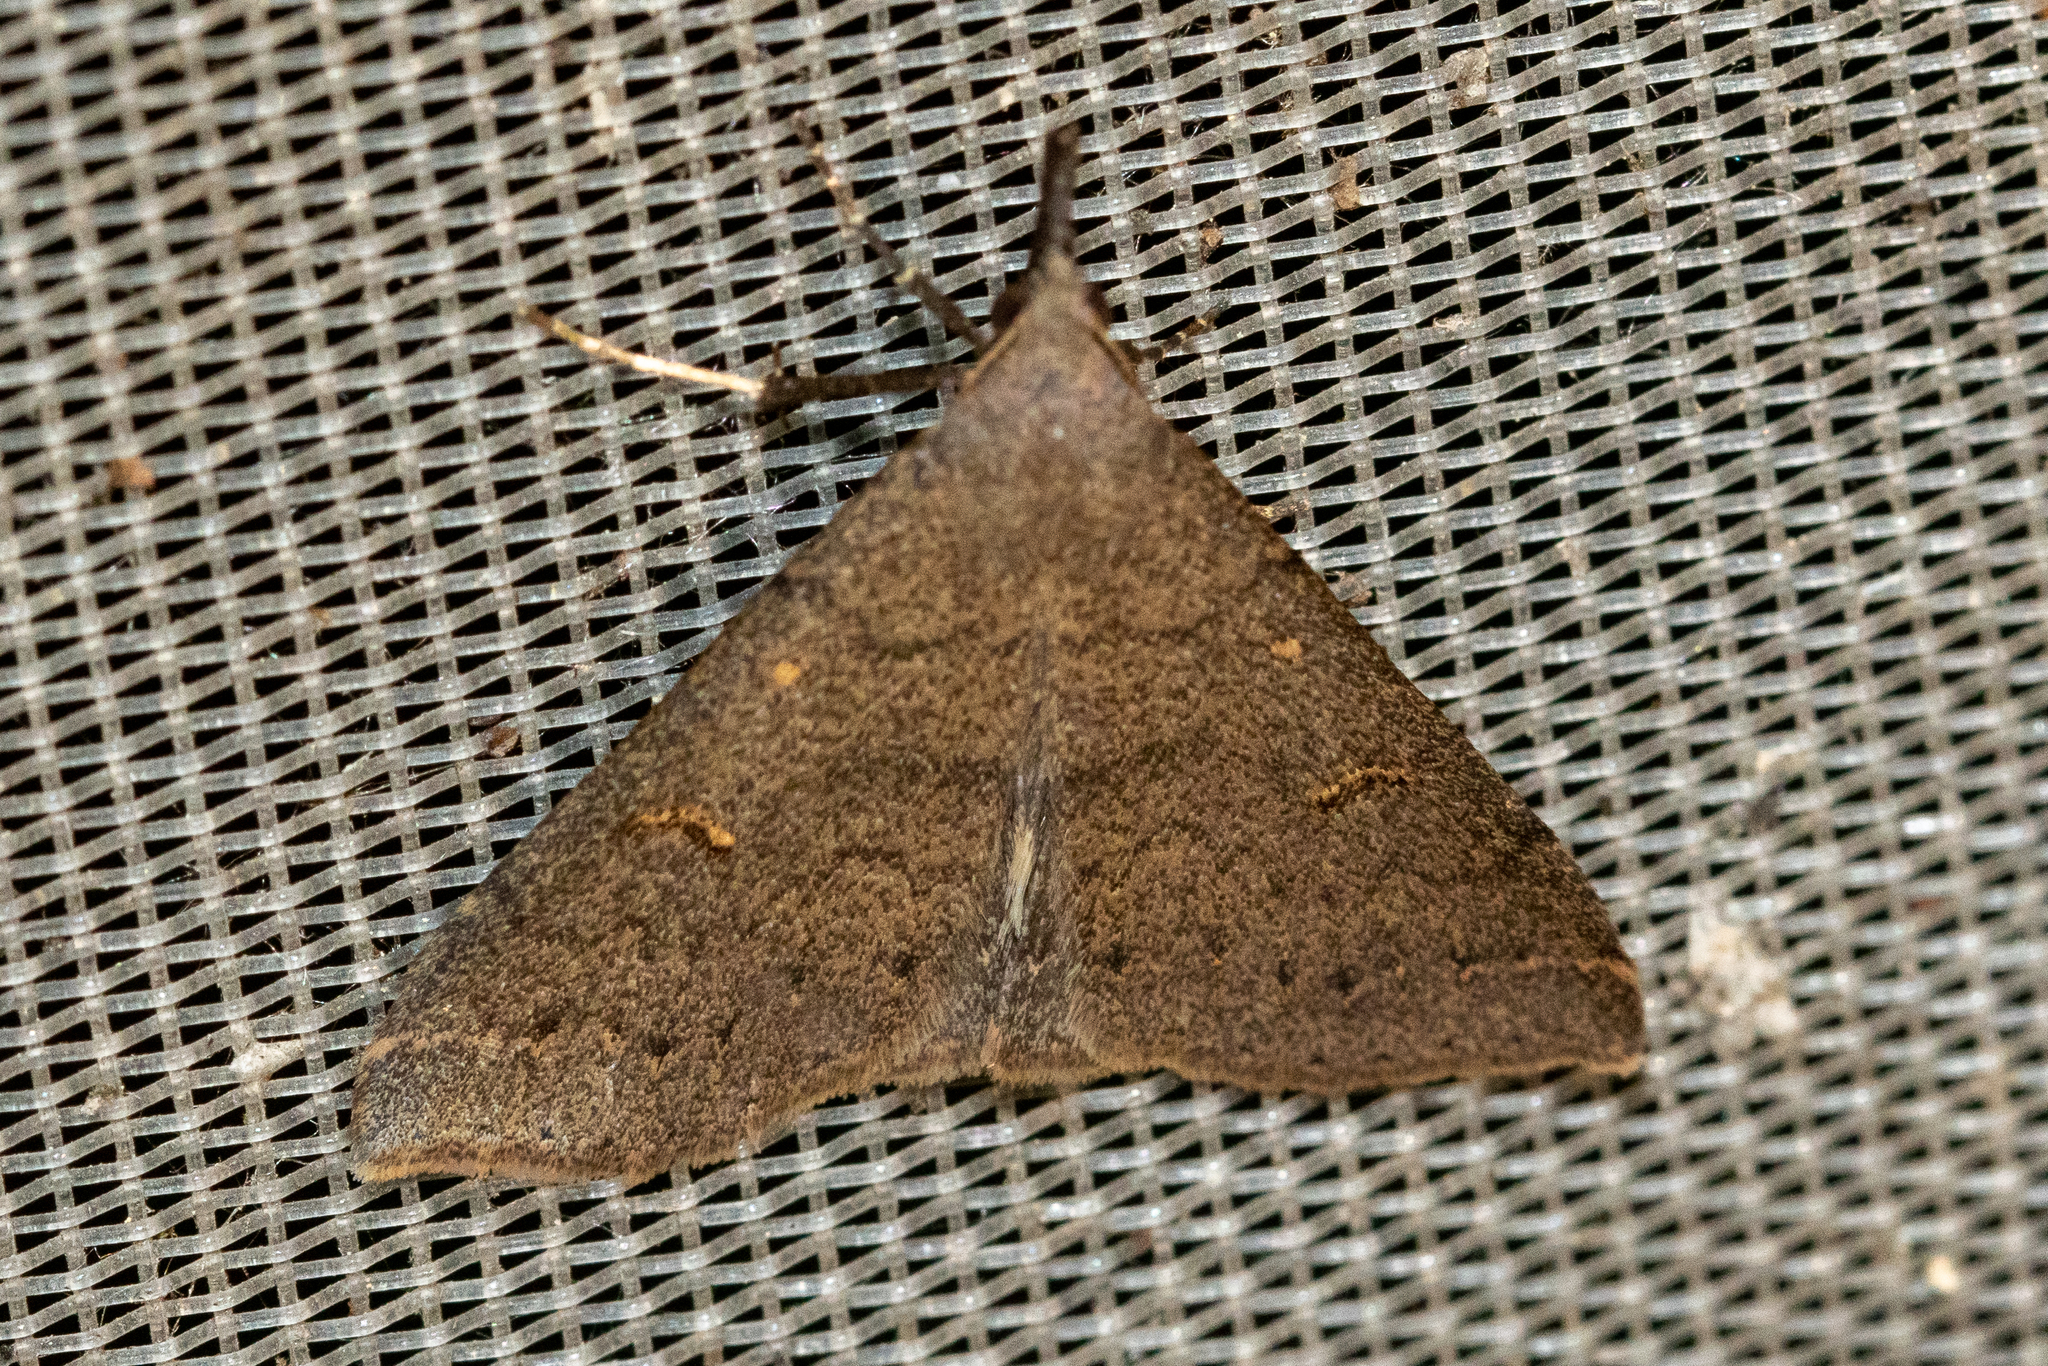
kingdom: Animalia
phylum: Arthropoda
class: Insecta
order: Lepidoptera
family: Erebidae
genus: Renia
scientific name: Renia adspergillus
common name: Speckled renia moth
